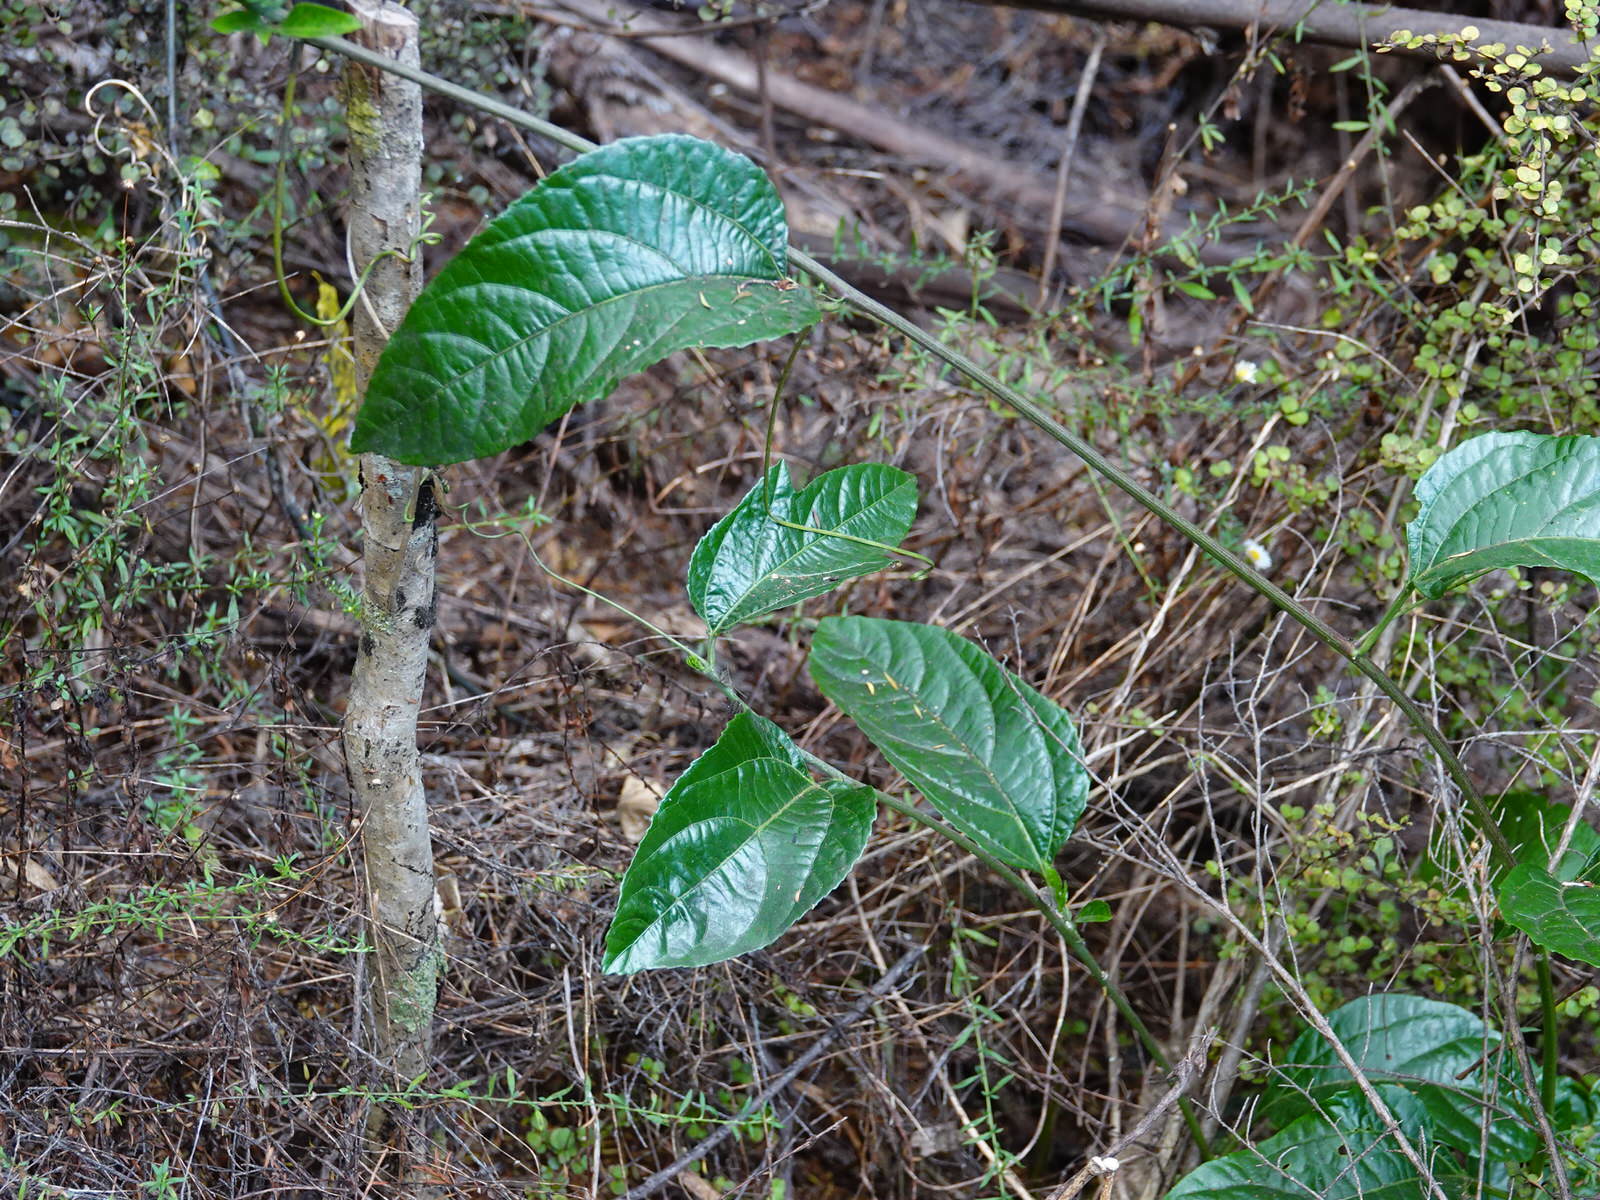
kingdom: Plantae
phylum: Tracheophyta
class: Magnoliopsida
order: Malpighiales
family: Passifloraceae
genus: Passiflora
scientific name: Passiflora edulis
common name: Purple granadilla
